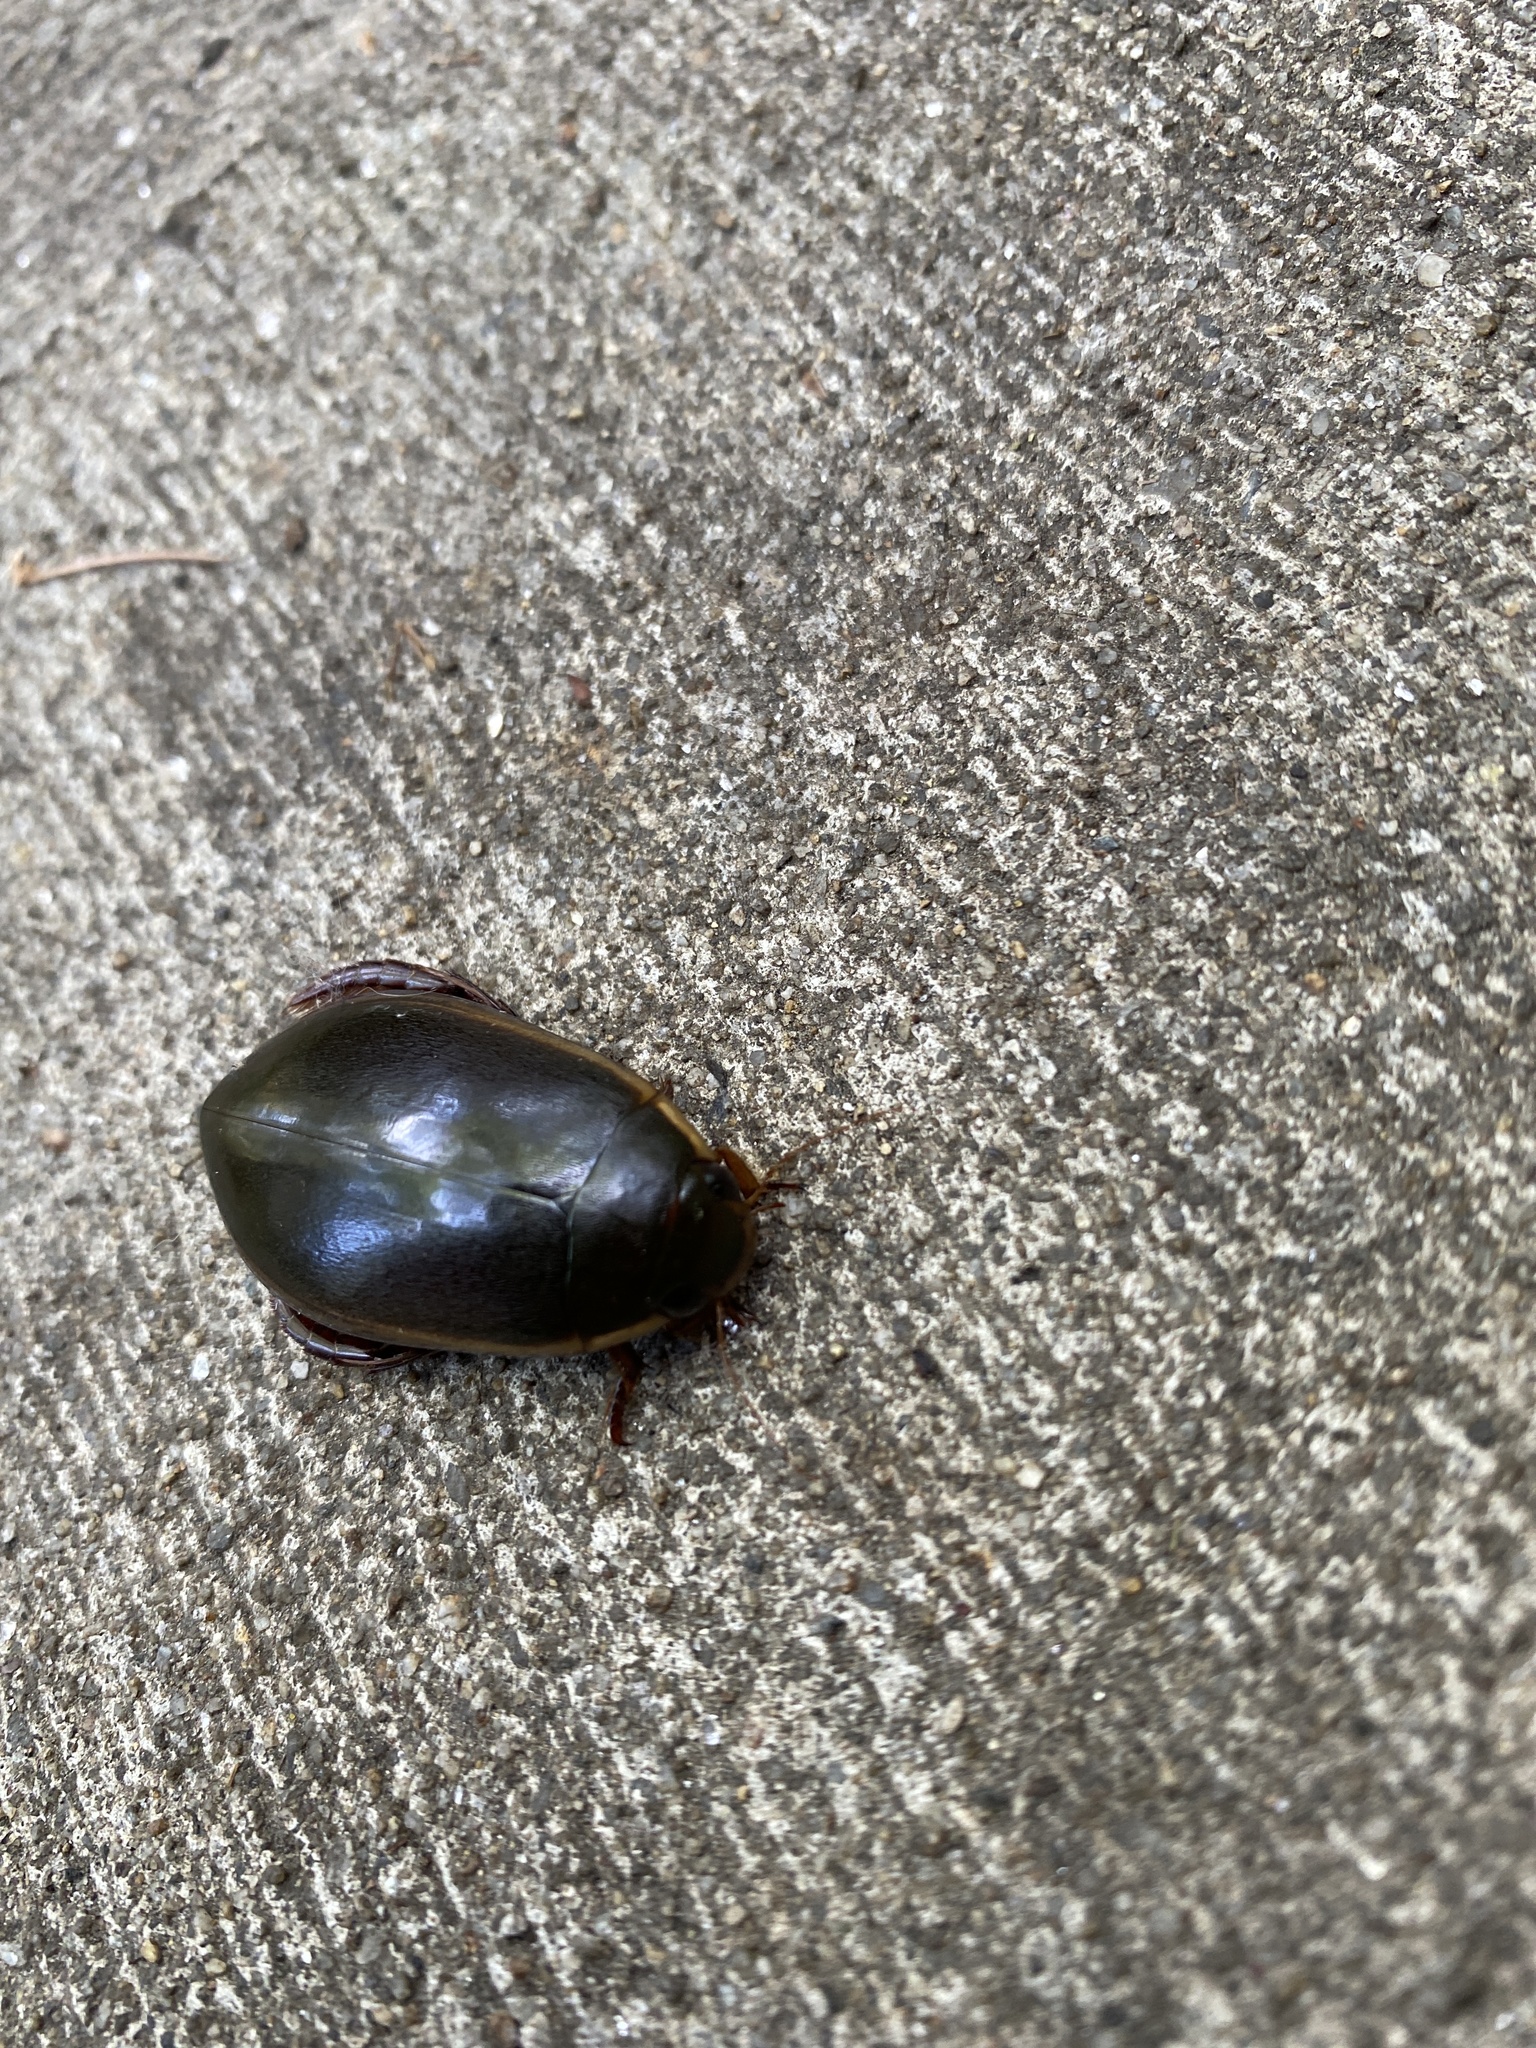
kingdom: Animalia
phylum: Arthropoda
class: Insecta
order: Coleoptera
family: Dytiscidae
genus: Cybister
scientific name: Cybister fimbriolatus
